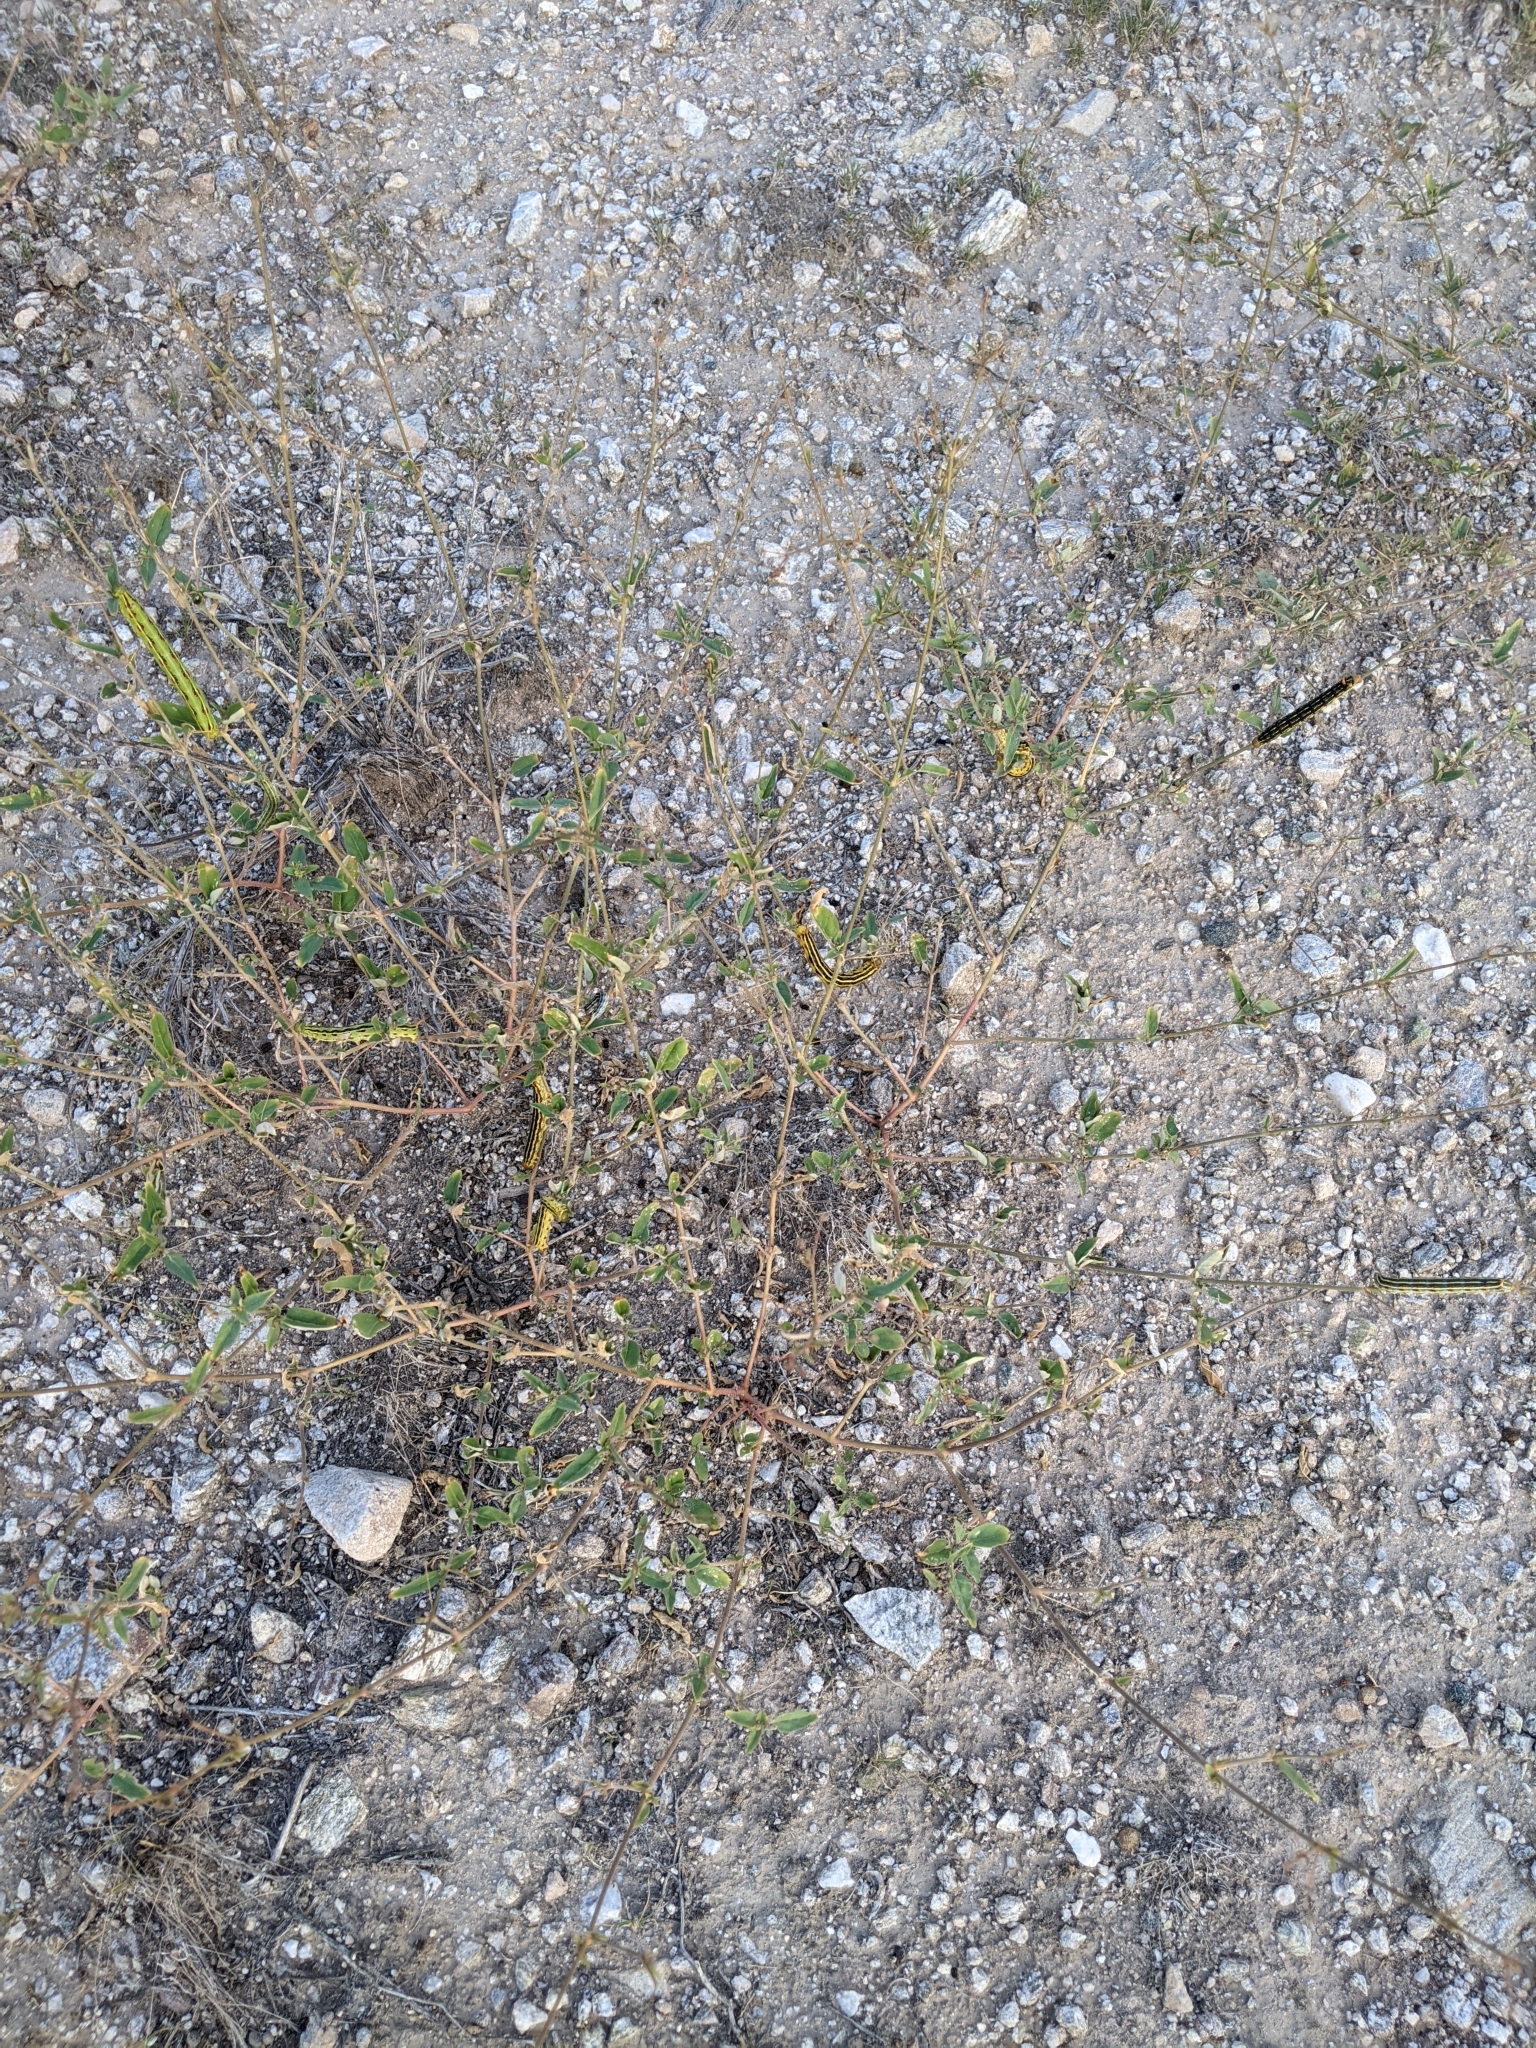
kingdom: Animalia
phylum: Arthropoda
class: Insecta
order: Lepidoptera
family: Sphingidae
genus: Hyles
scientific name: Hyles lineata
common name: White-lined sphinx
